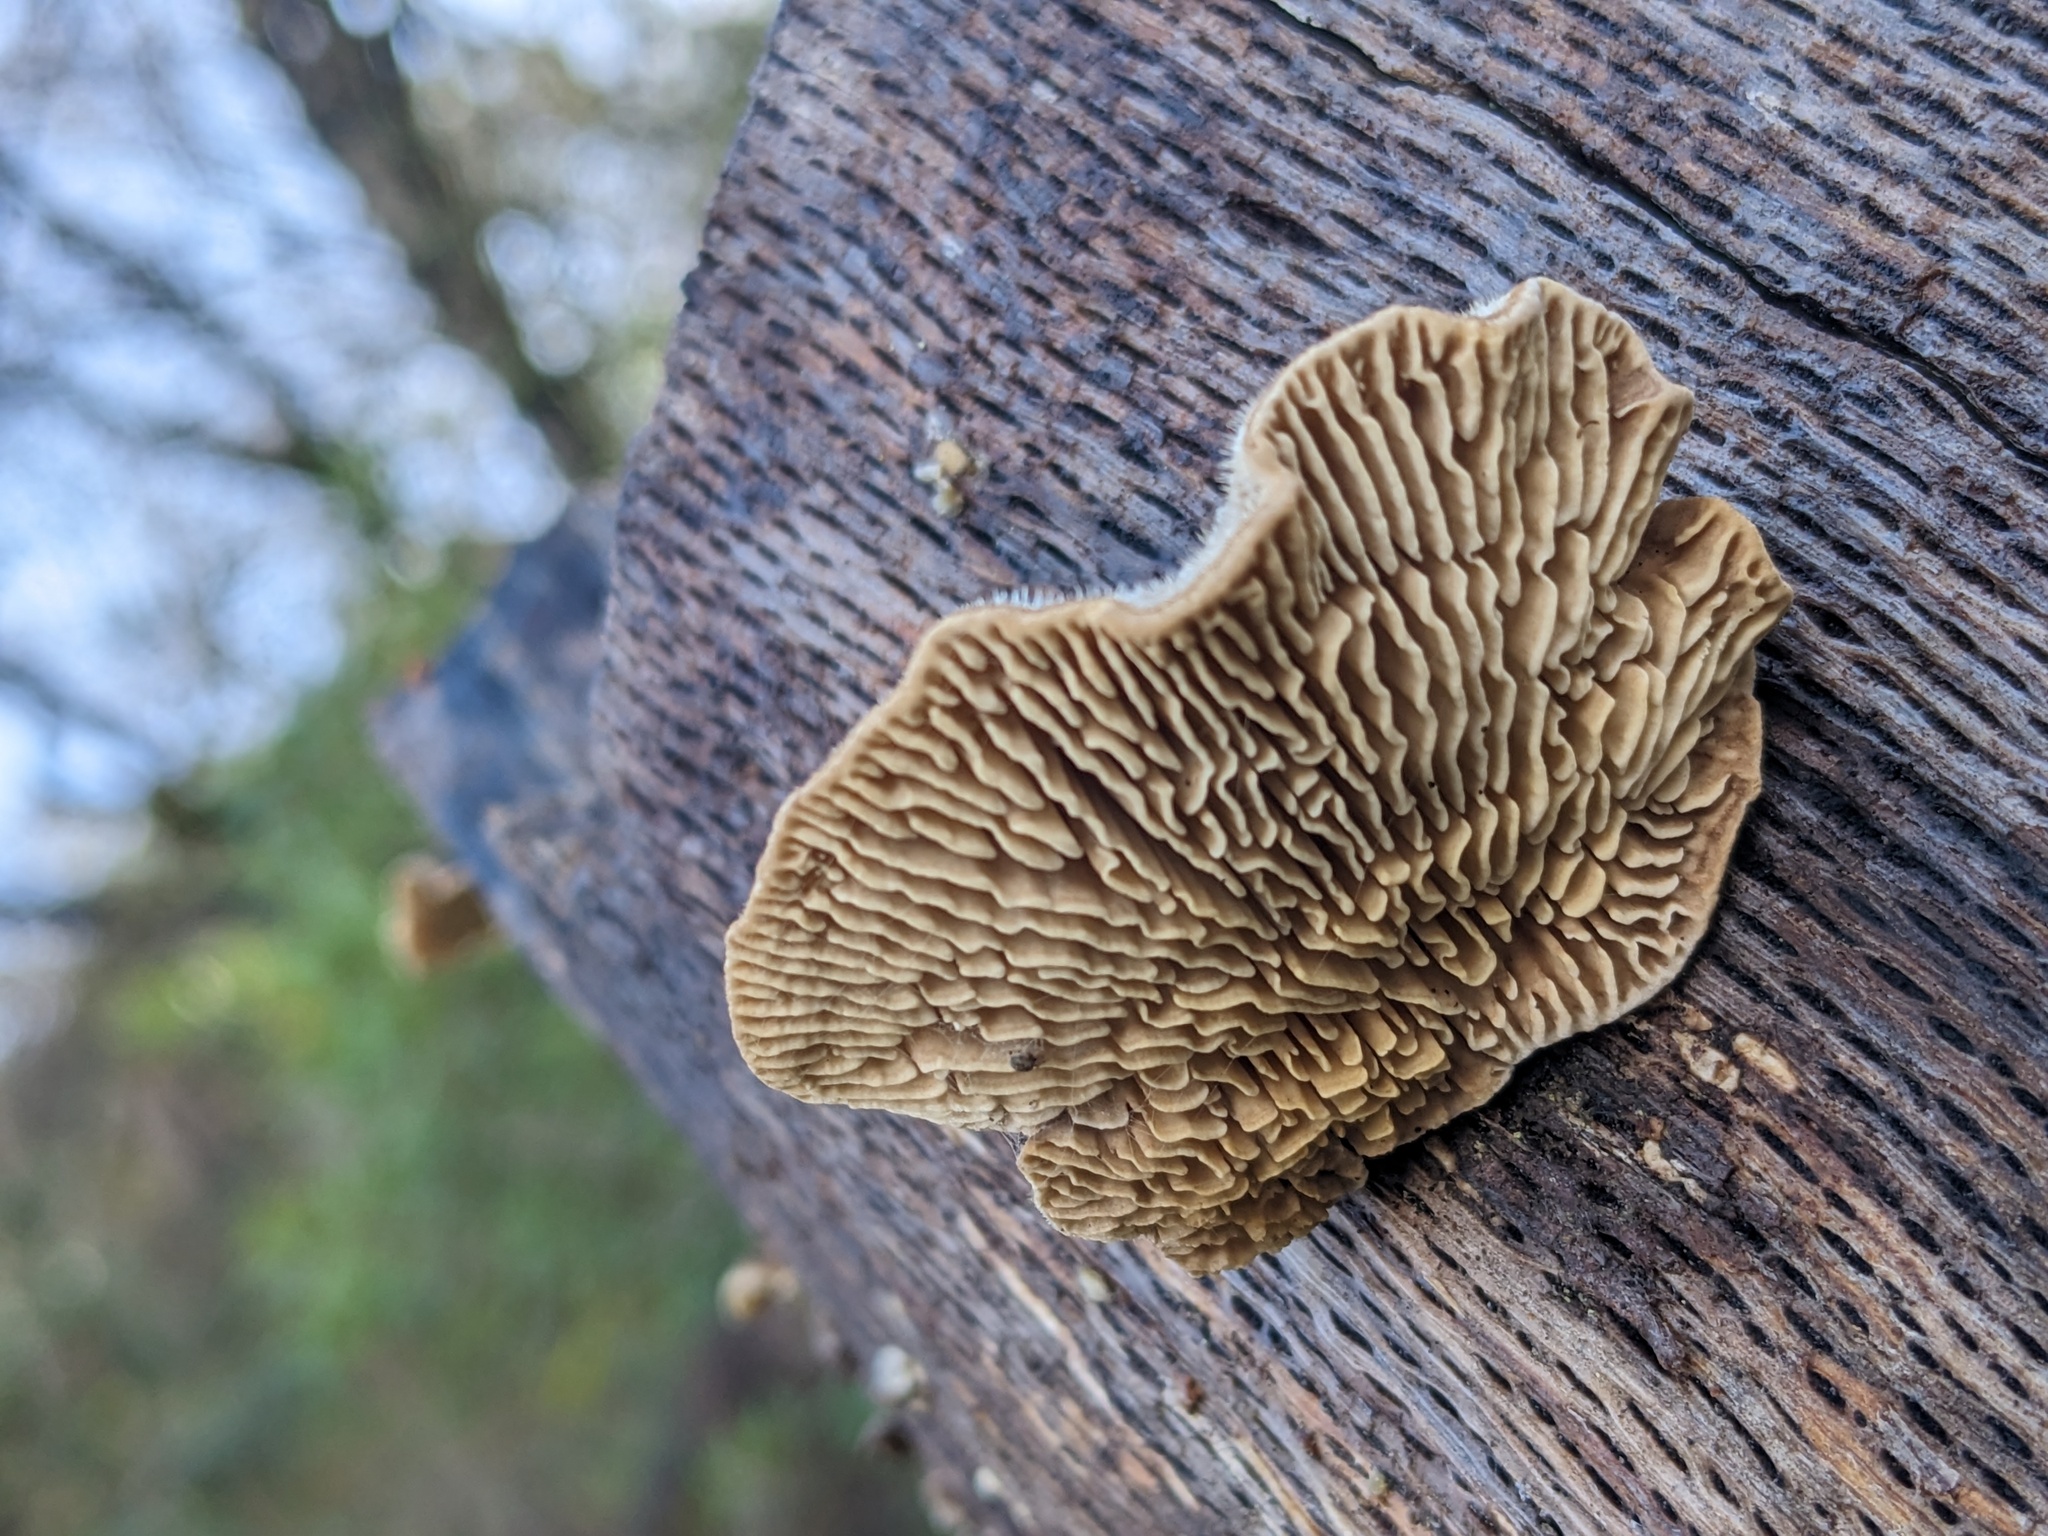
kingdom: Fungi
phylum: Basidiomycota
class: Agaricomycetes
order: Polyporales
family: Fomitopsidaceae
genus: Fomitopsis
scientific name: Fomitopsis
